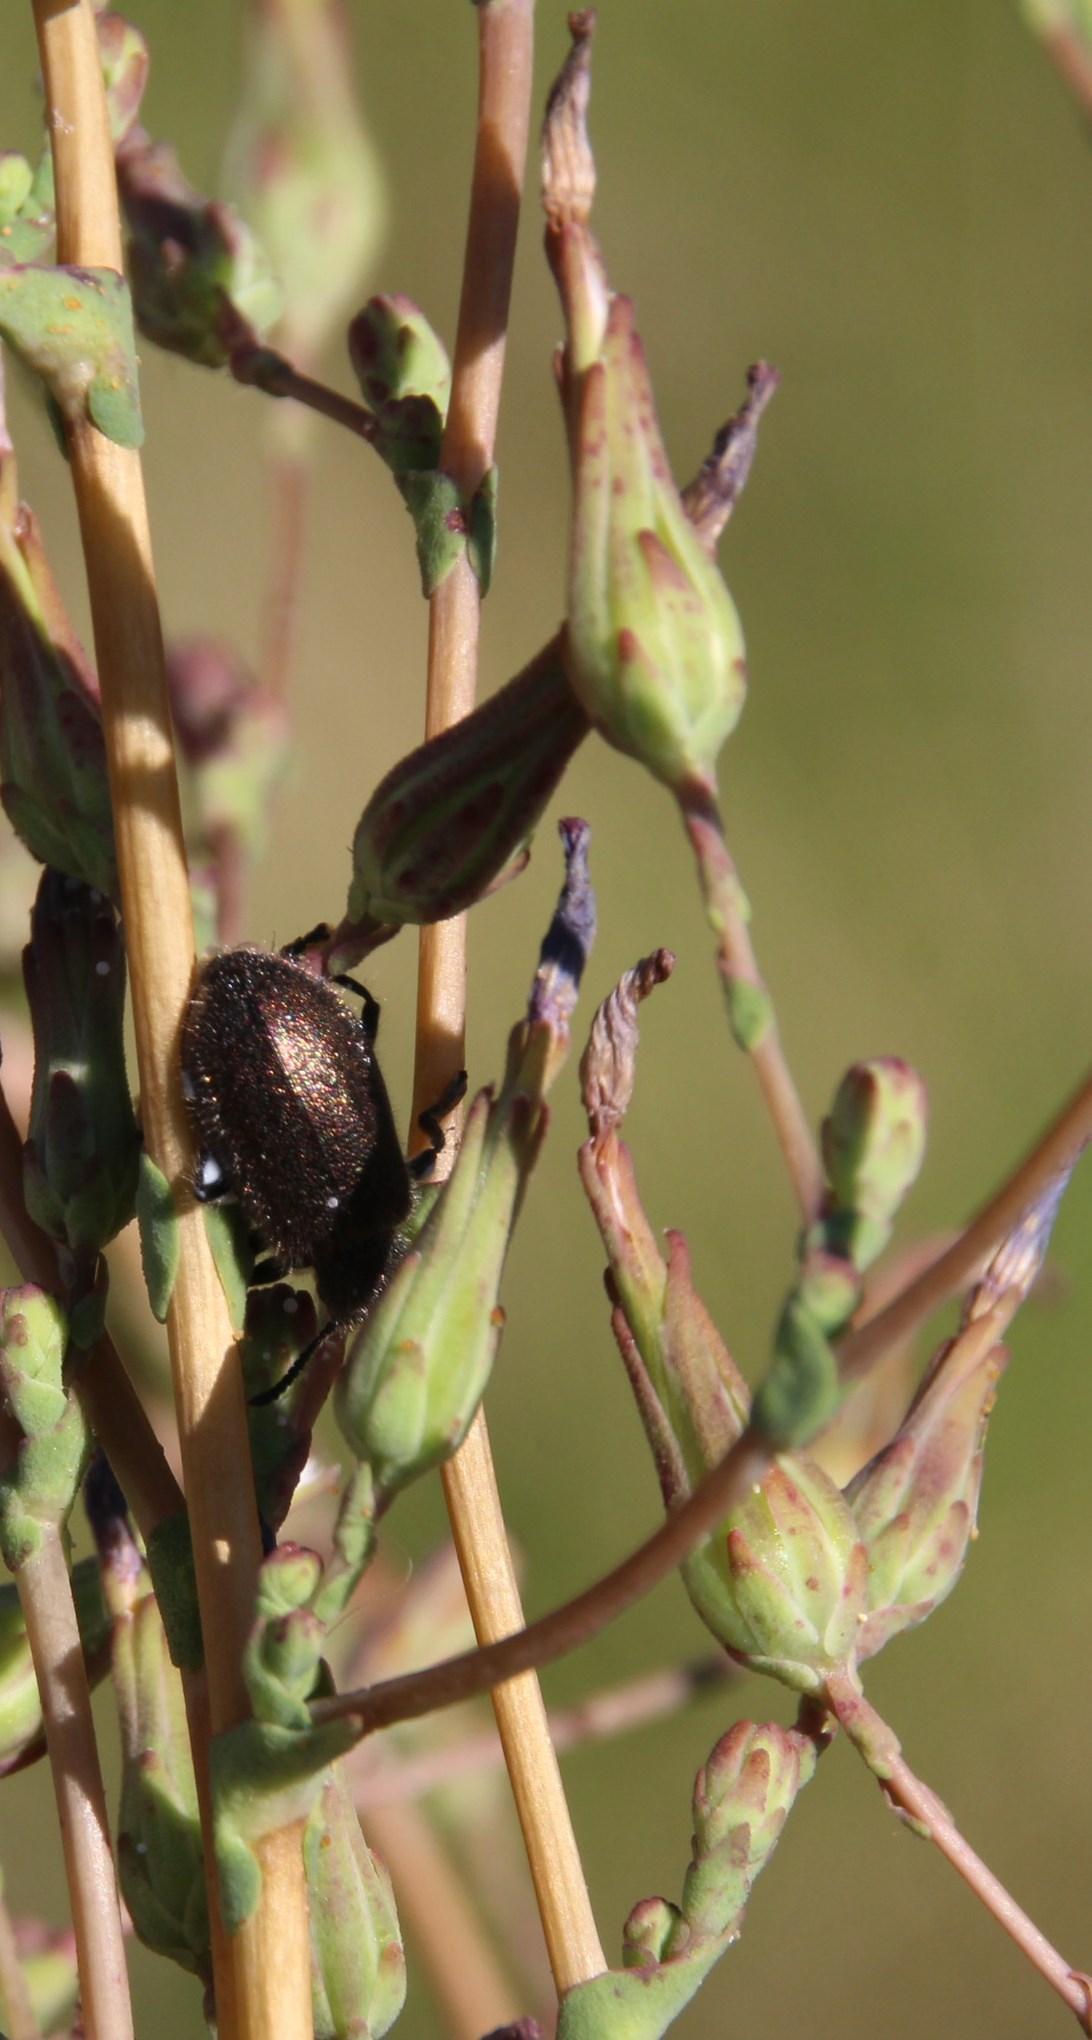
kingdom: Plantae
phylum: Tracheophyta
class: Magnoliopsida
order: Asterales
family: Asteraceae
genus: Lactuca
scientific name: Lactuca serriola
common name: Prickly lettuce
